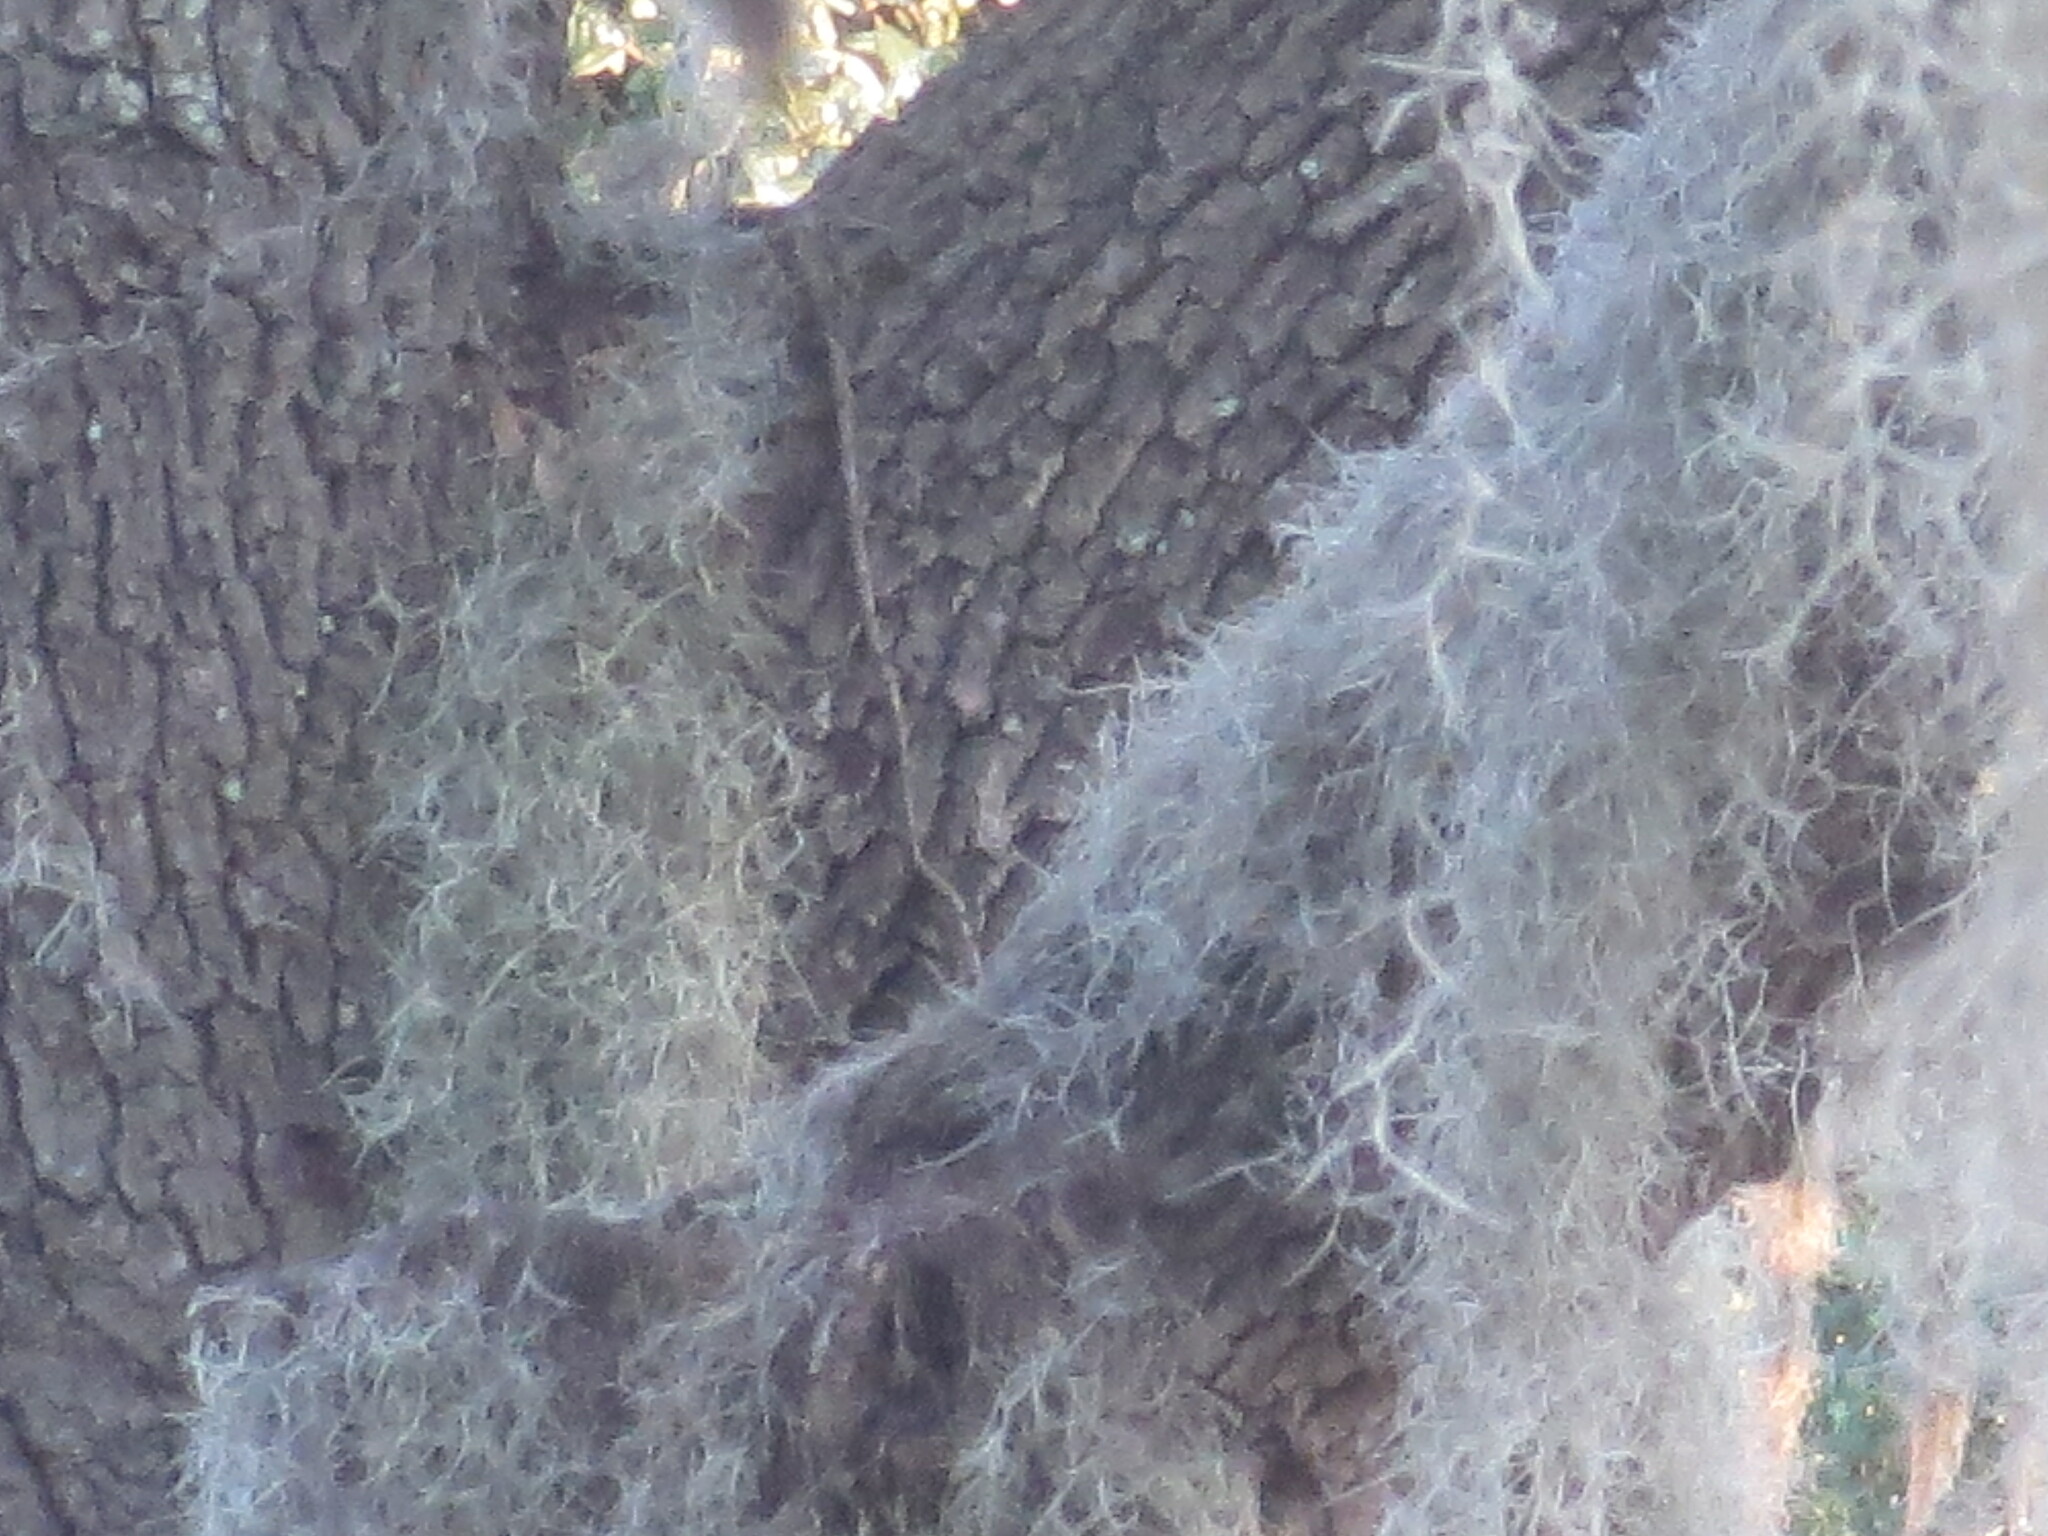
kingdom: Plantae
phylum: Tracheophyta
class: Liliopsida
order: Poales
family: Bromeliaceae
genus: Tillandsia
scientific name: Tillandsia usneoides
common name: Spanish moss
